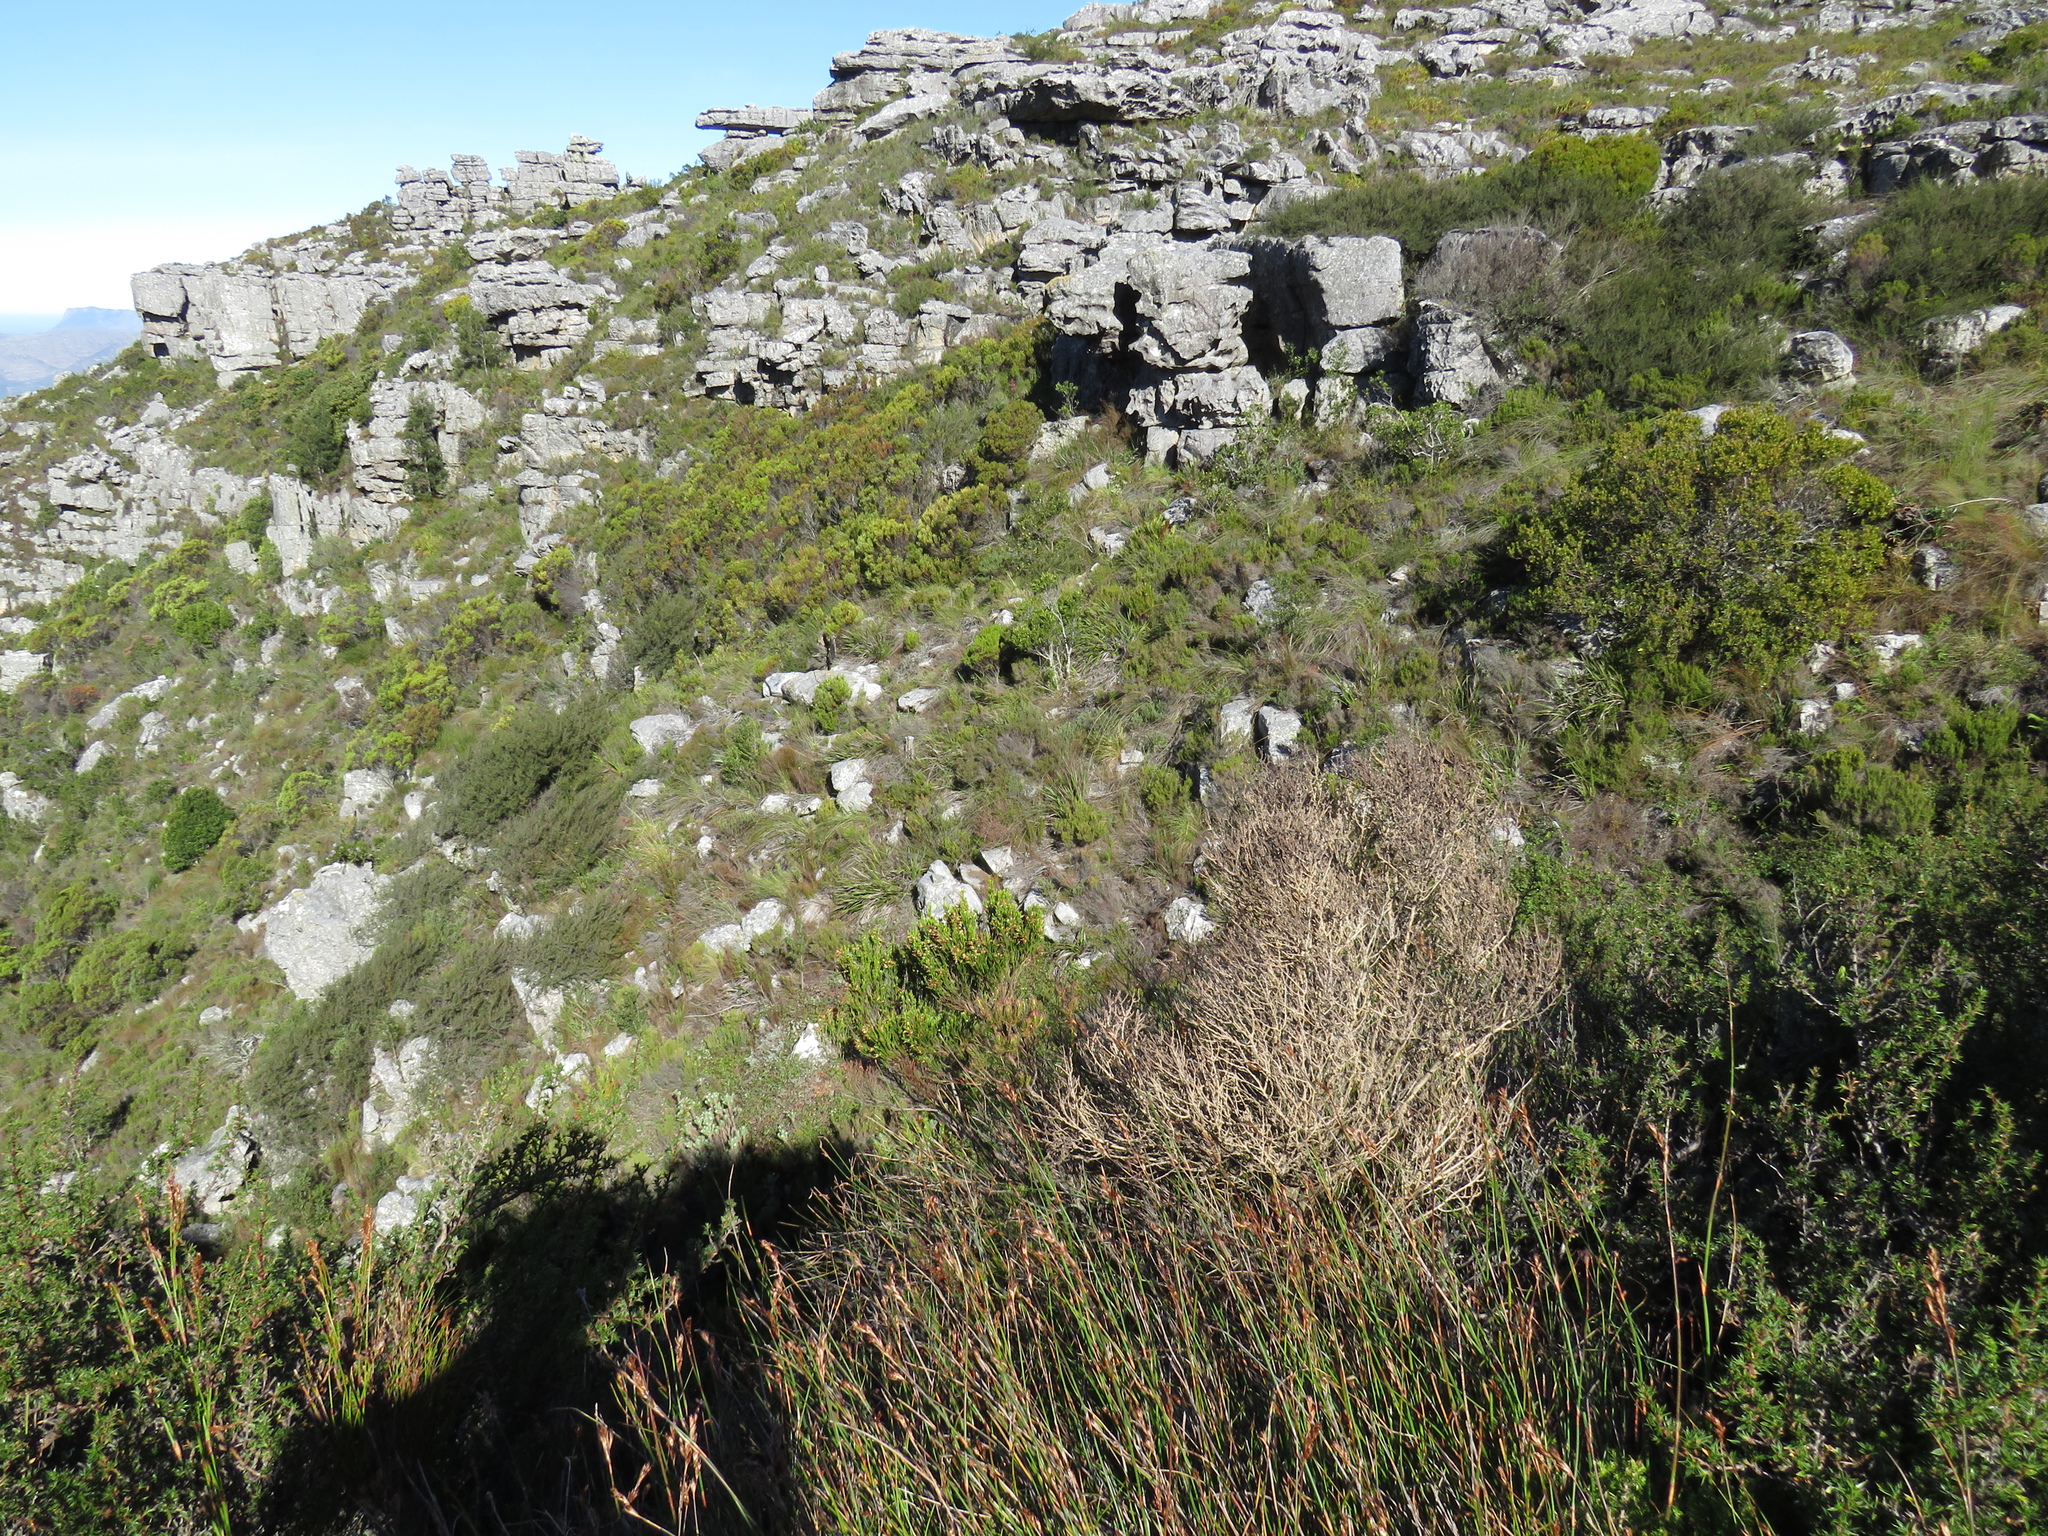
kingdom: Plantae
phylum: Tracheophyta
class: Magnoliopsida
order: Ericales
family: Ericaceae
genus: Erica
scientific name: Erica abietina
